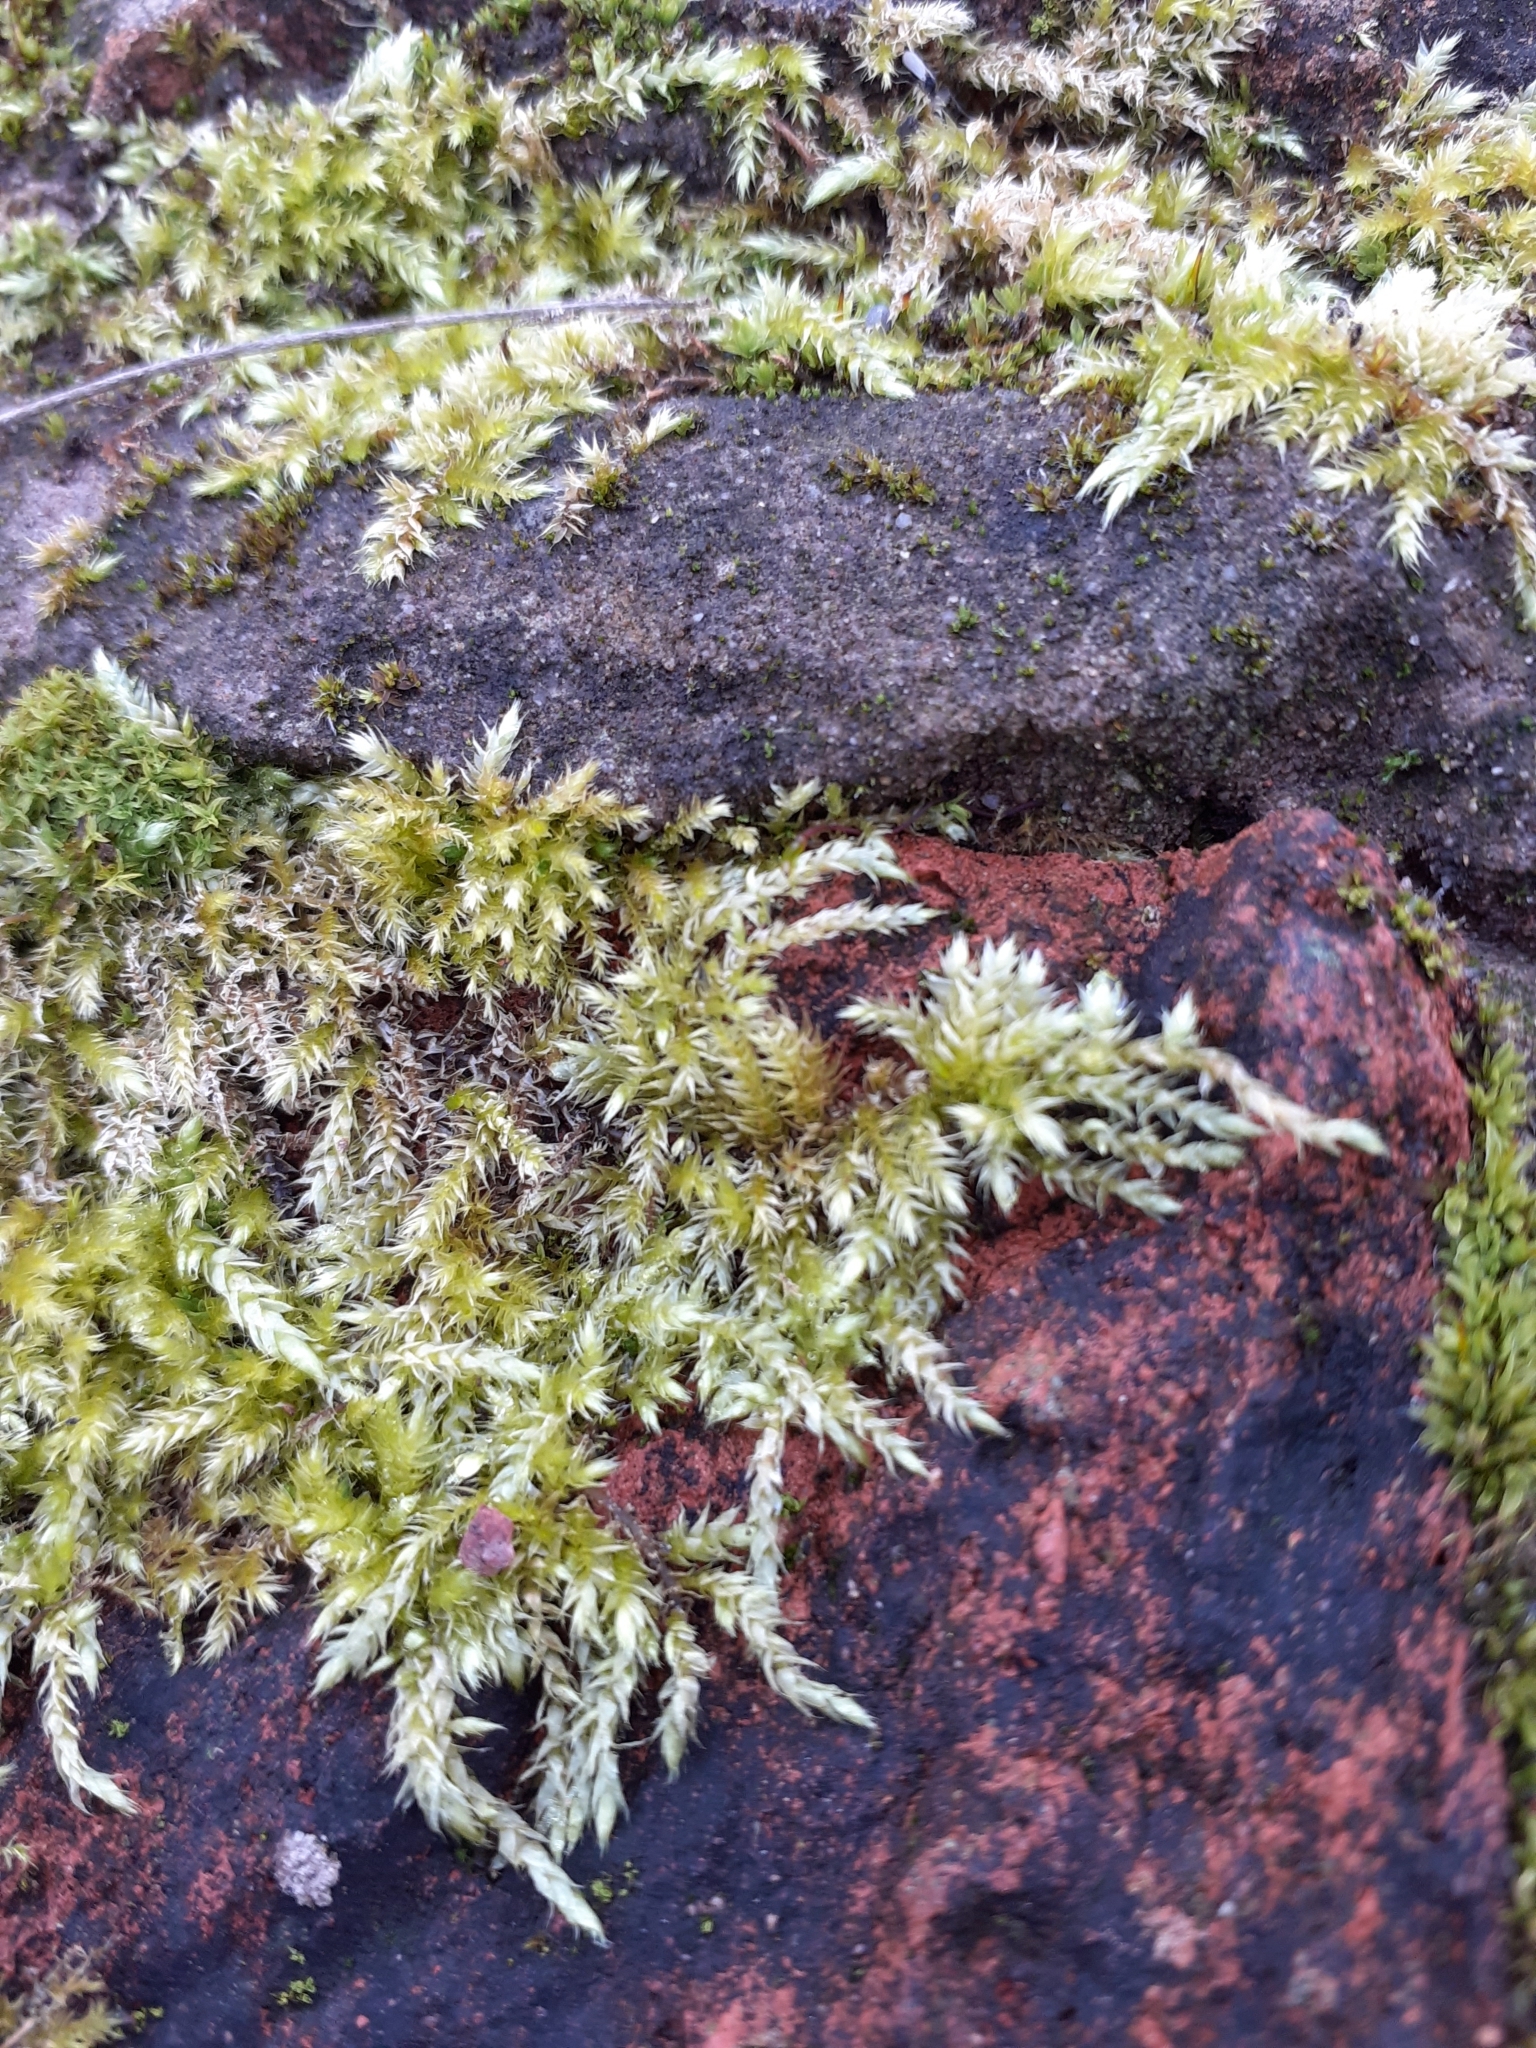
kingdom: Plantae
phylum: Bryophyta
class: Bryopsida
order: Hypnales
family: Brachytheciaceae
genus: Brachythecium
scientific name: Brachythecium rutabulum
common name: Rough-stalked feather-moss
